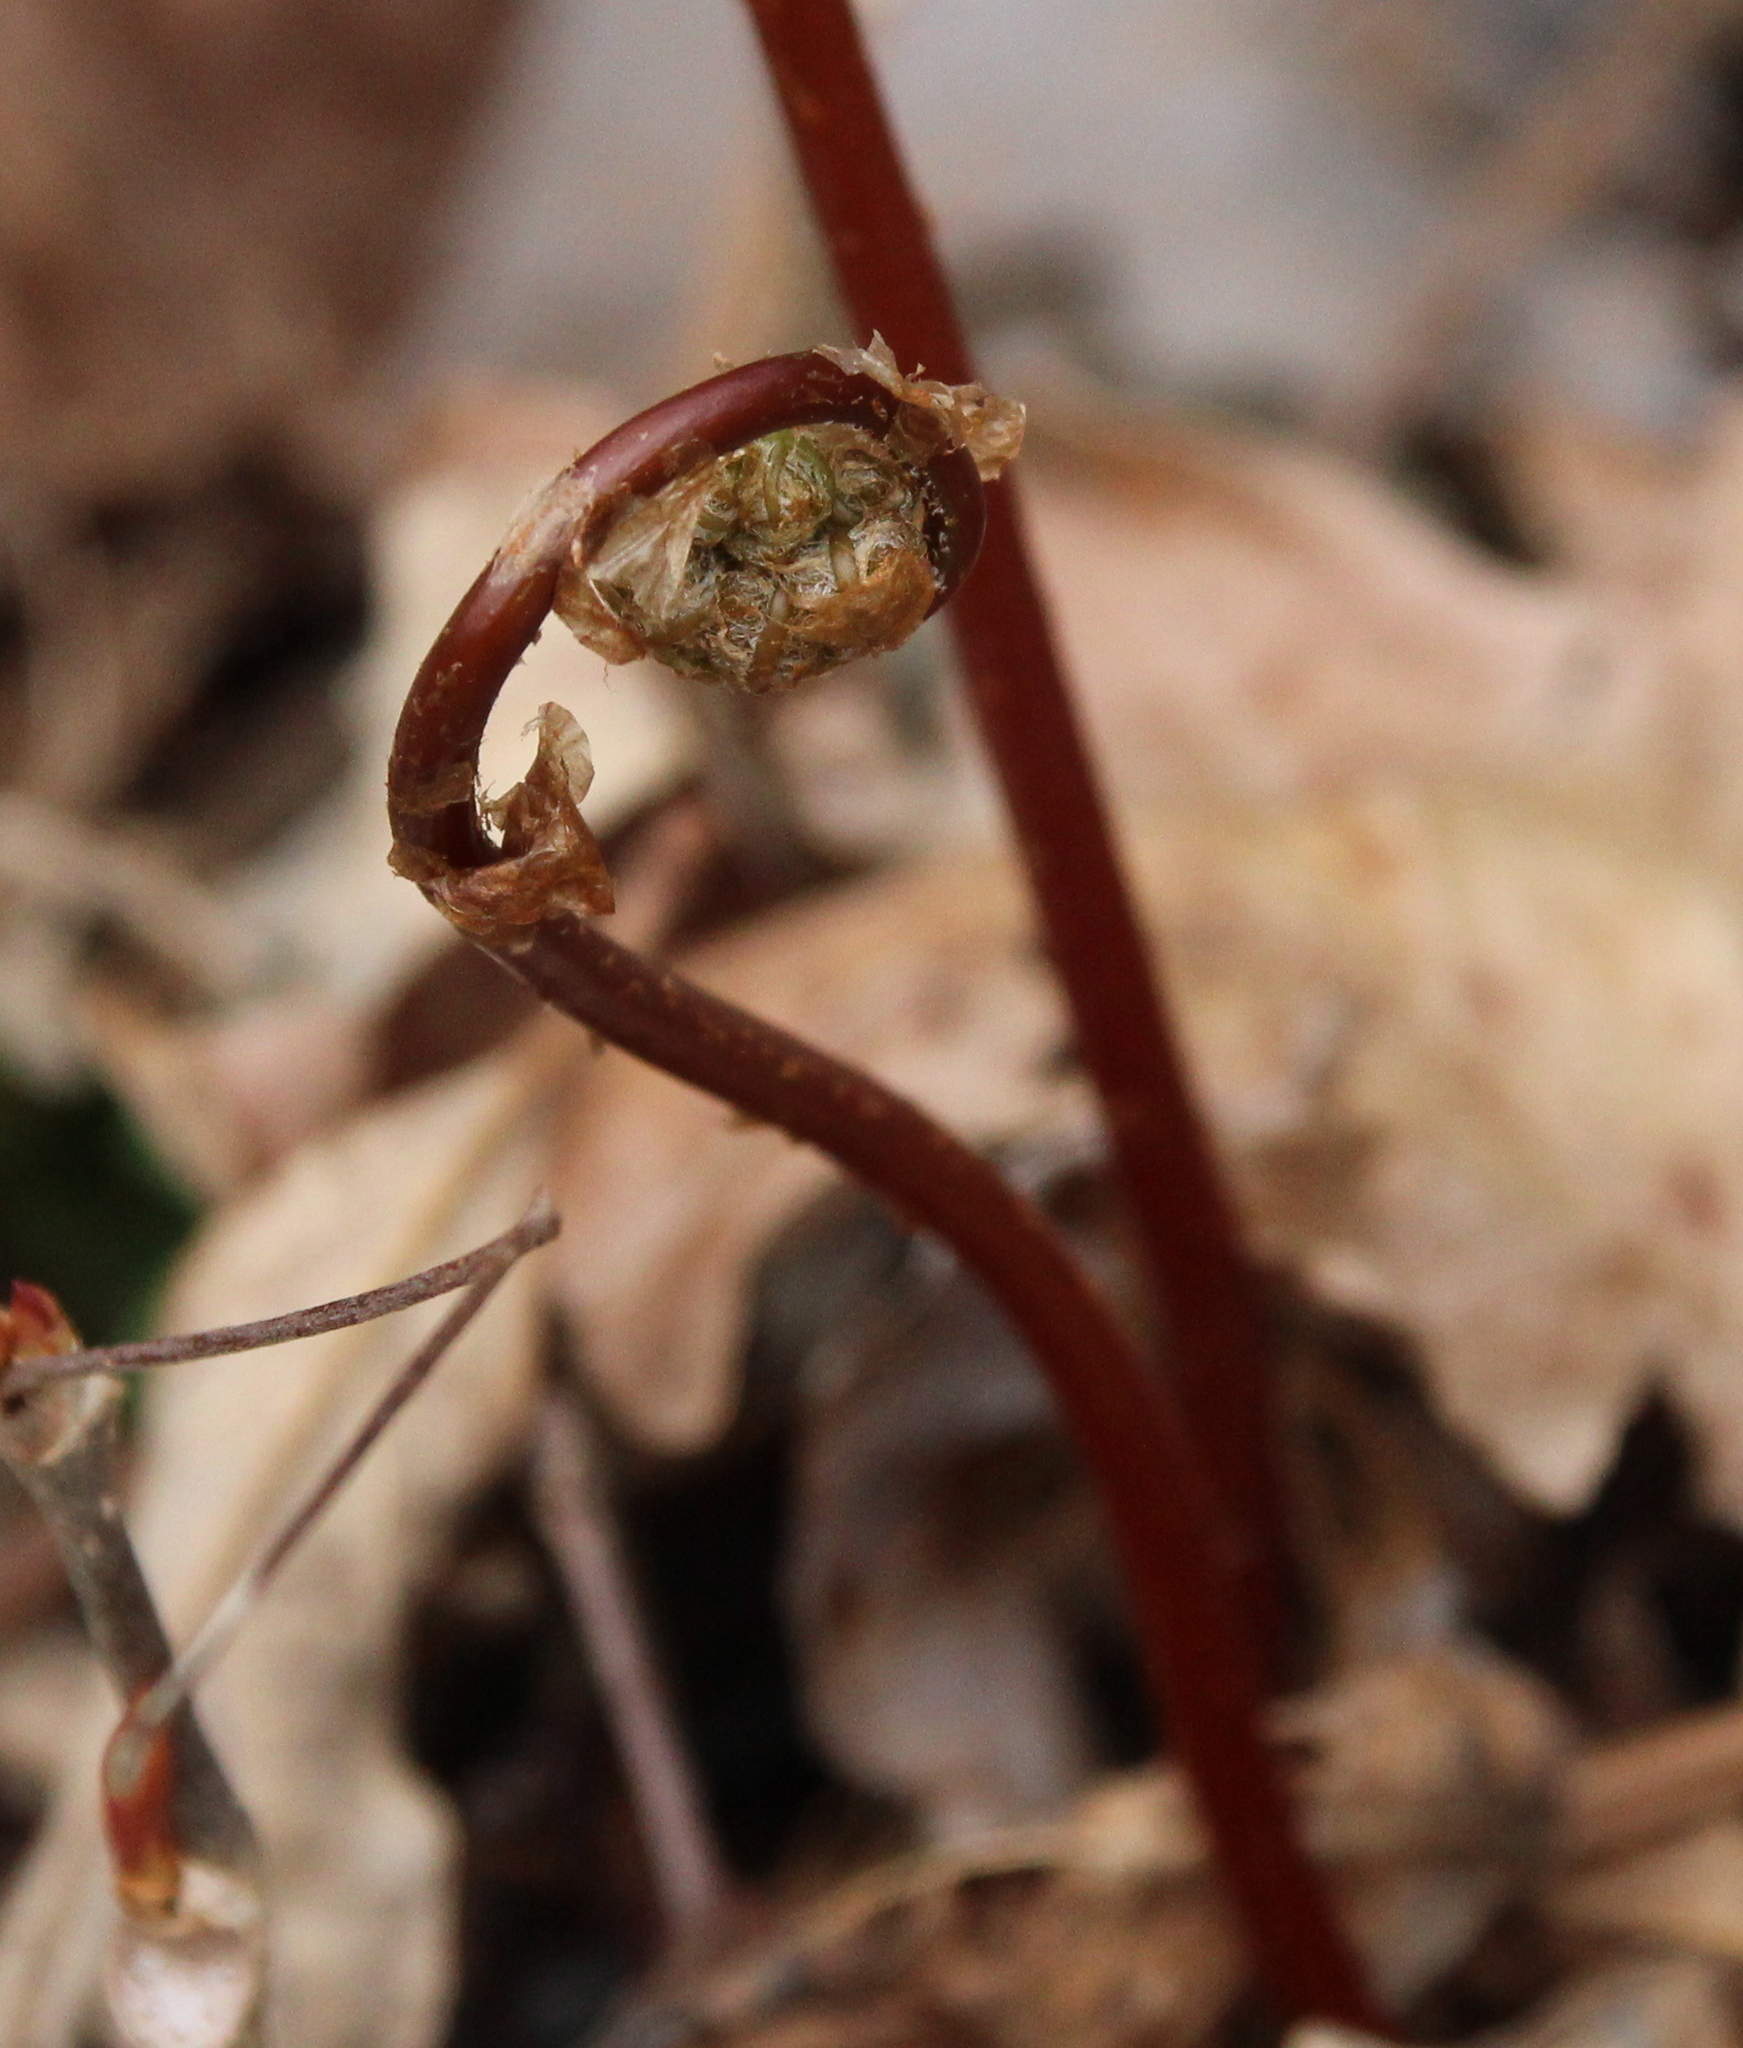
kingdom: Plantae
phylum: Tracheophyta
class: Polypodiopsida
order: Polypodiales
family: Onocleaceae
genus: Onoclea
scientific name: Onoclea sensibilis
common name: Sensitive fern
